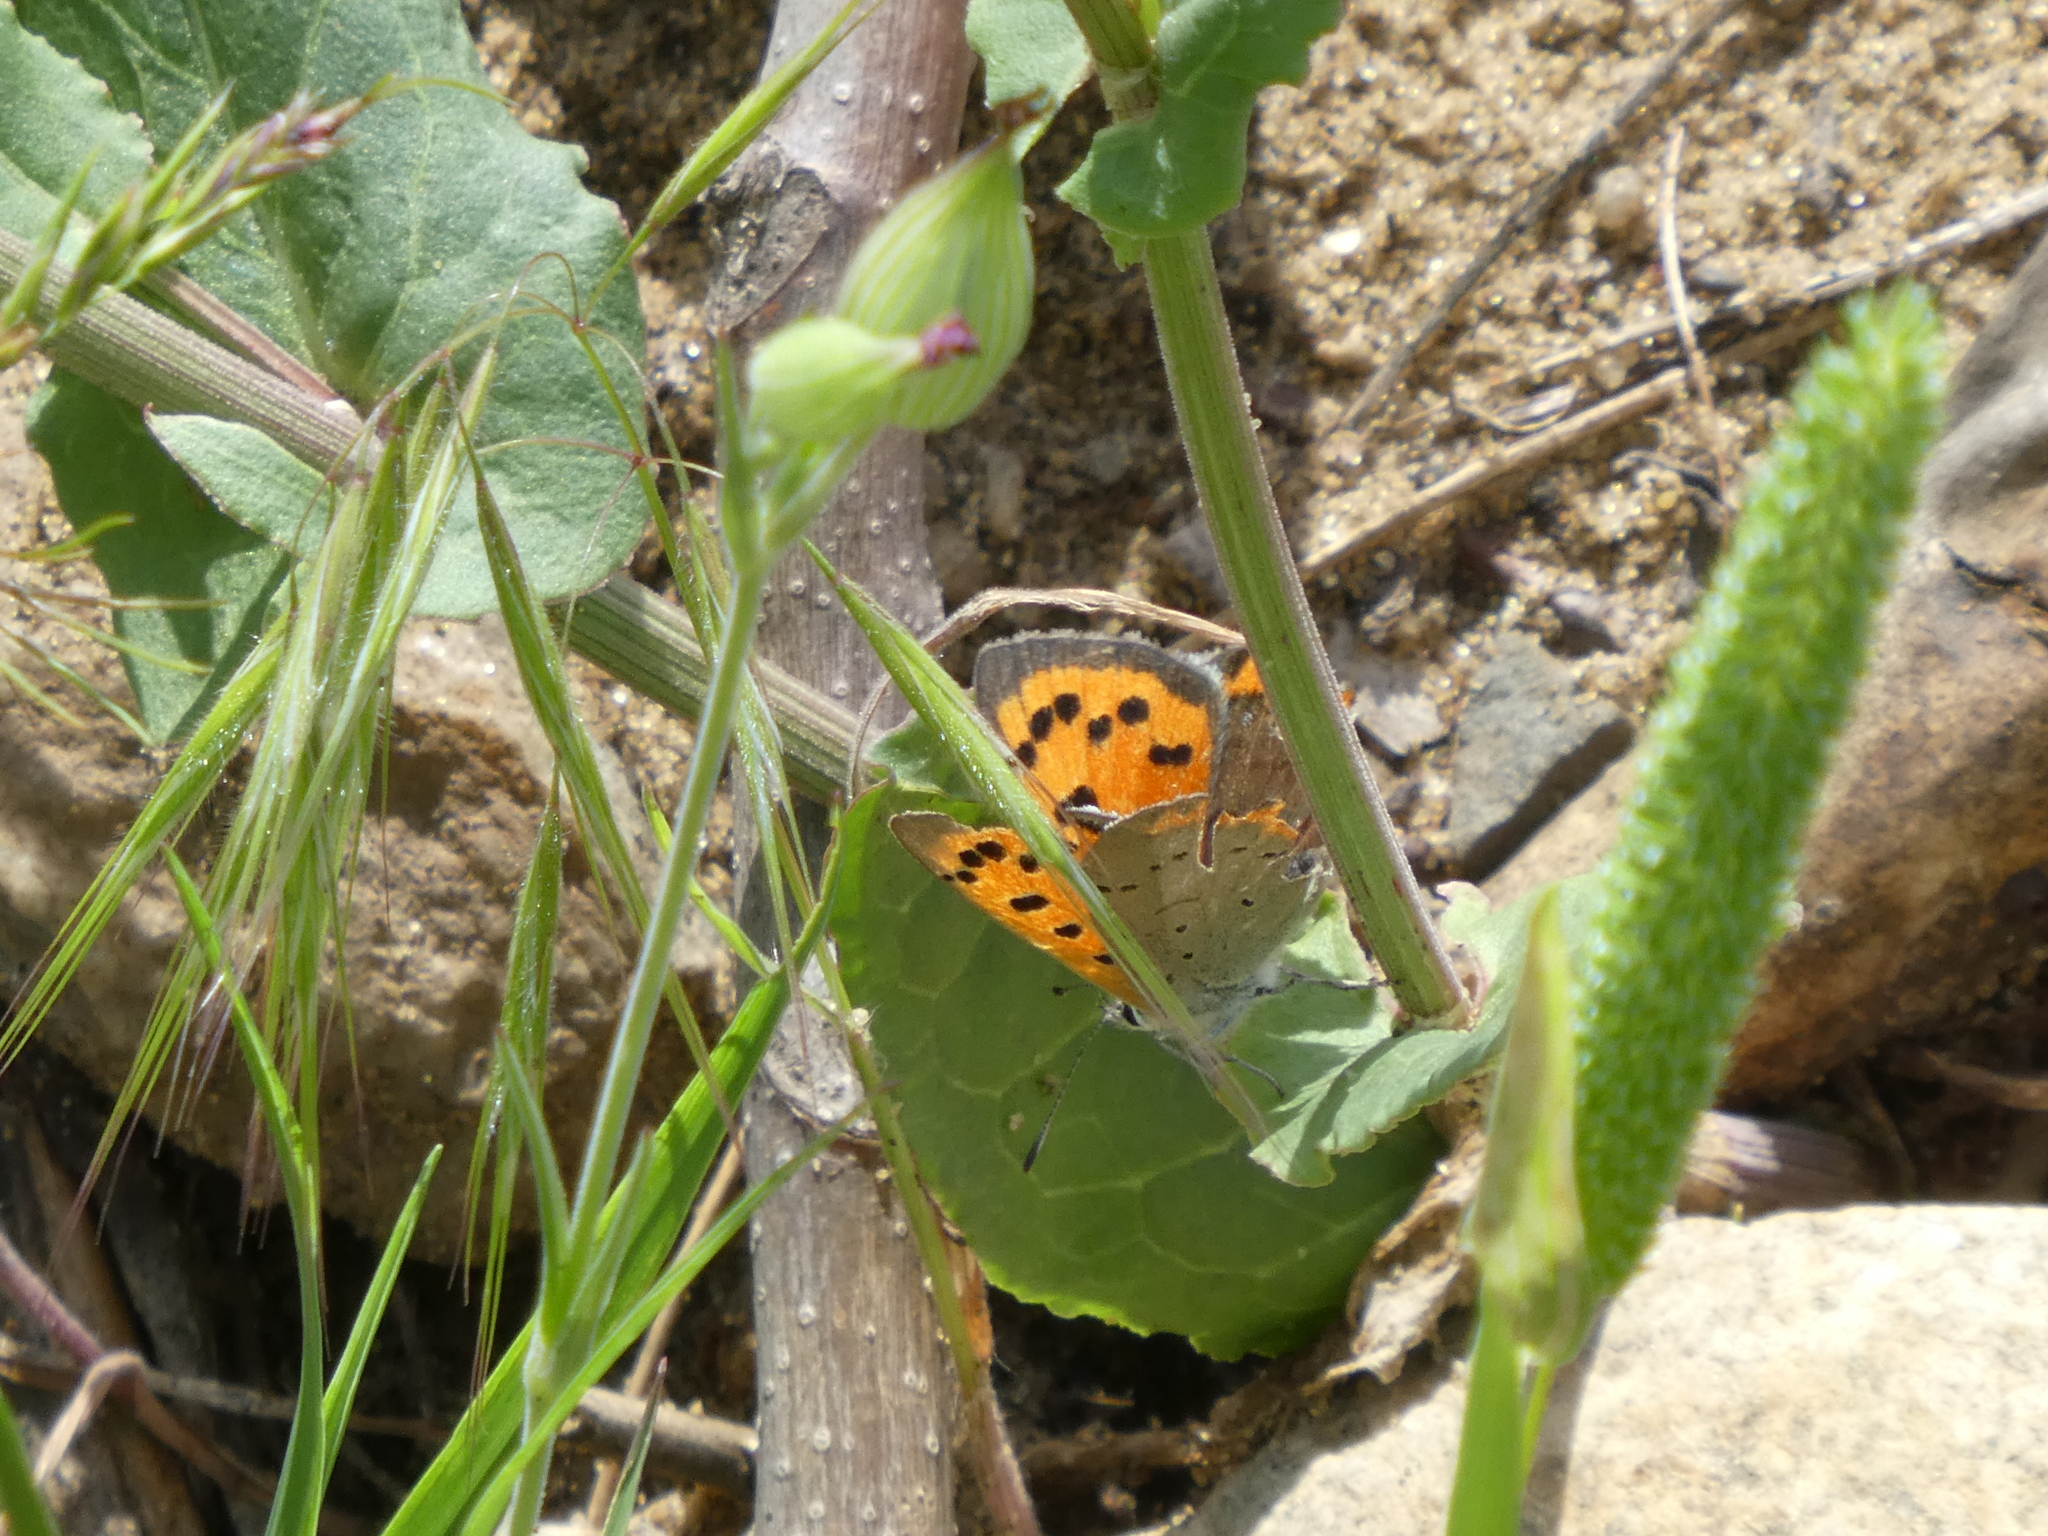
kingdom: Animalia
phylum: Arthropoda
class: Insecta
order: Lepidoptera
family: Lycaenidae
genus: Lycaena
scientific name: Lycaena phlaeas
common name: Small copper
